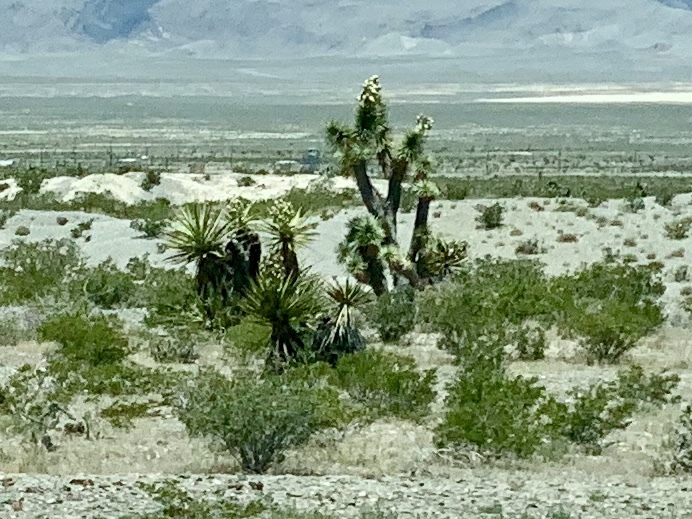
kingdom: Plantae
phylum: Tracheophyta
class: Liliopsida
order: Asparagales
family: Asparagaceae
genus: Yucca
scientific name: Yucca brevifolia
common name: Joshua tree
